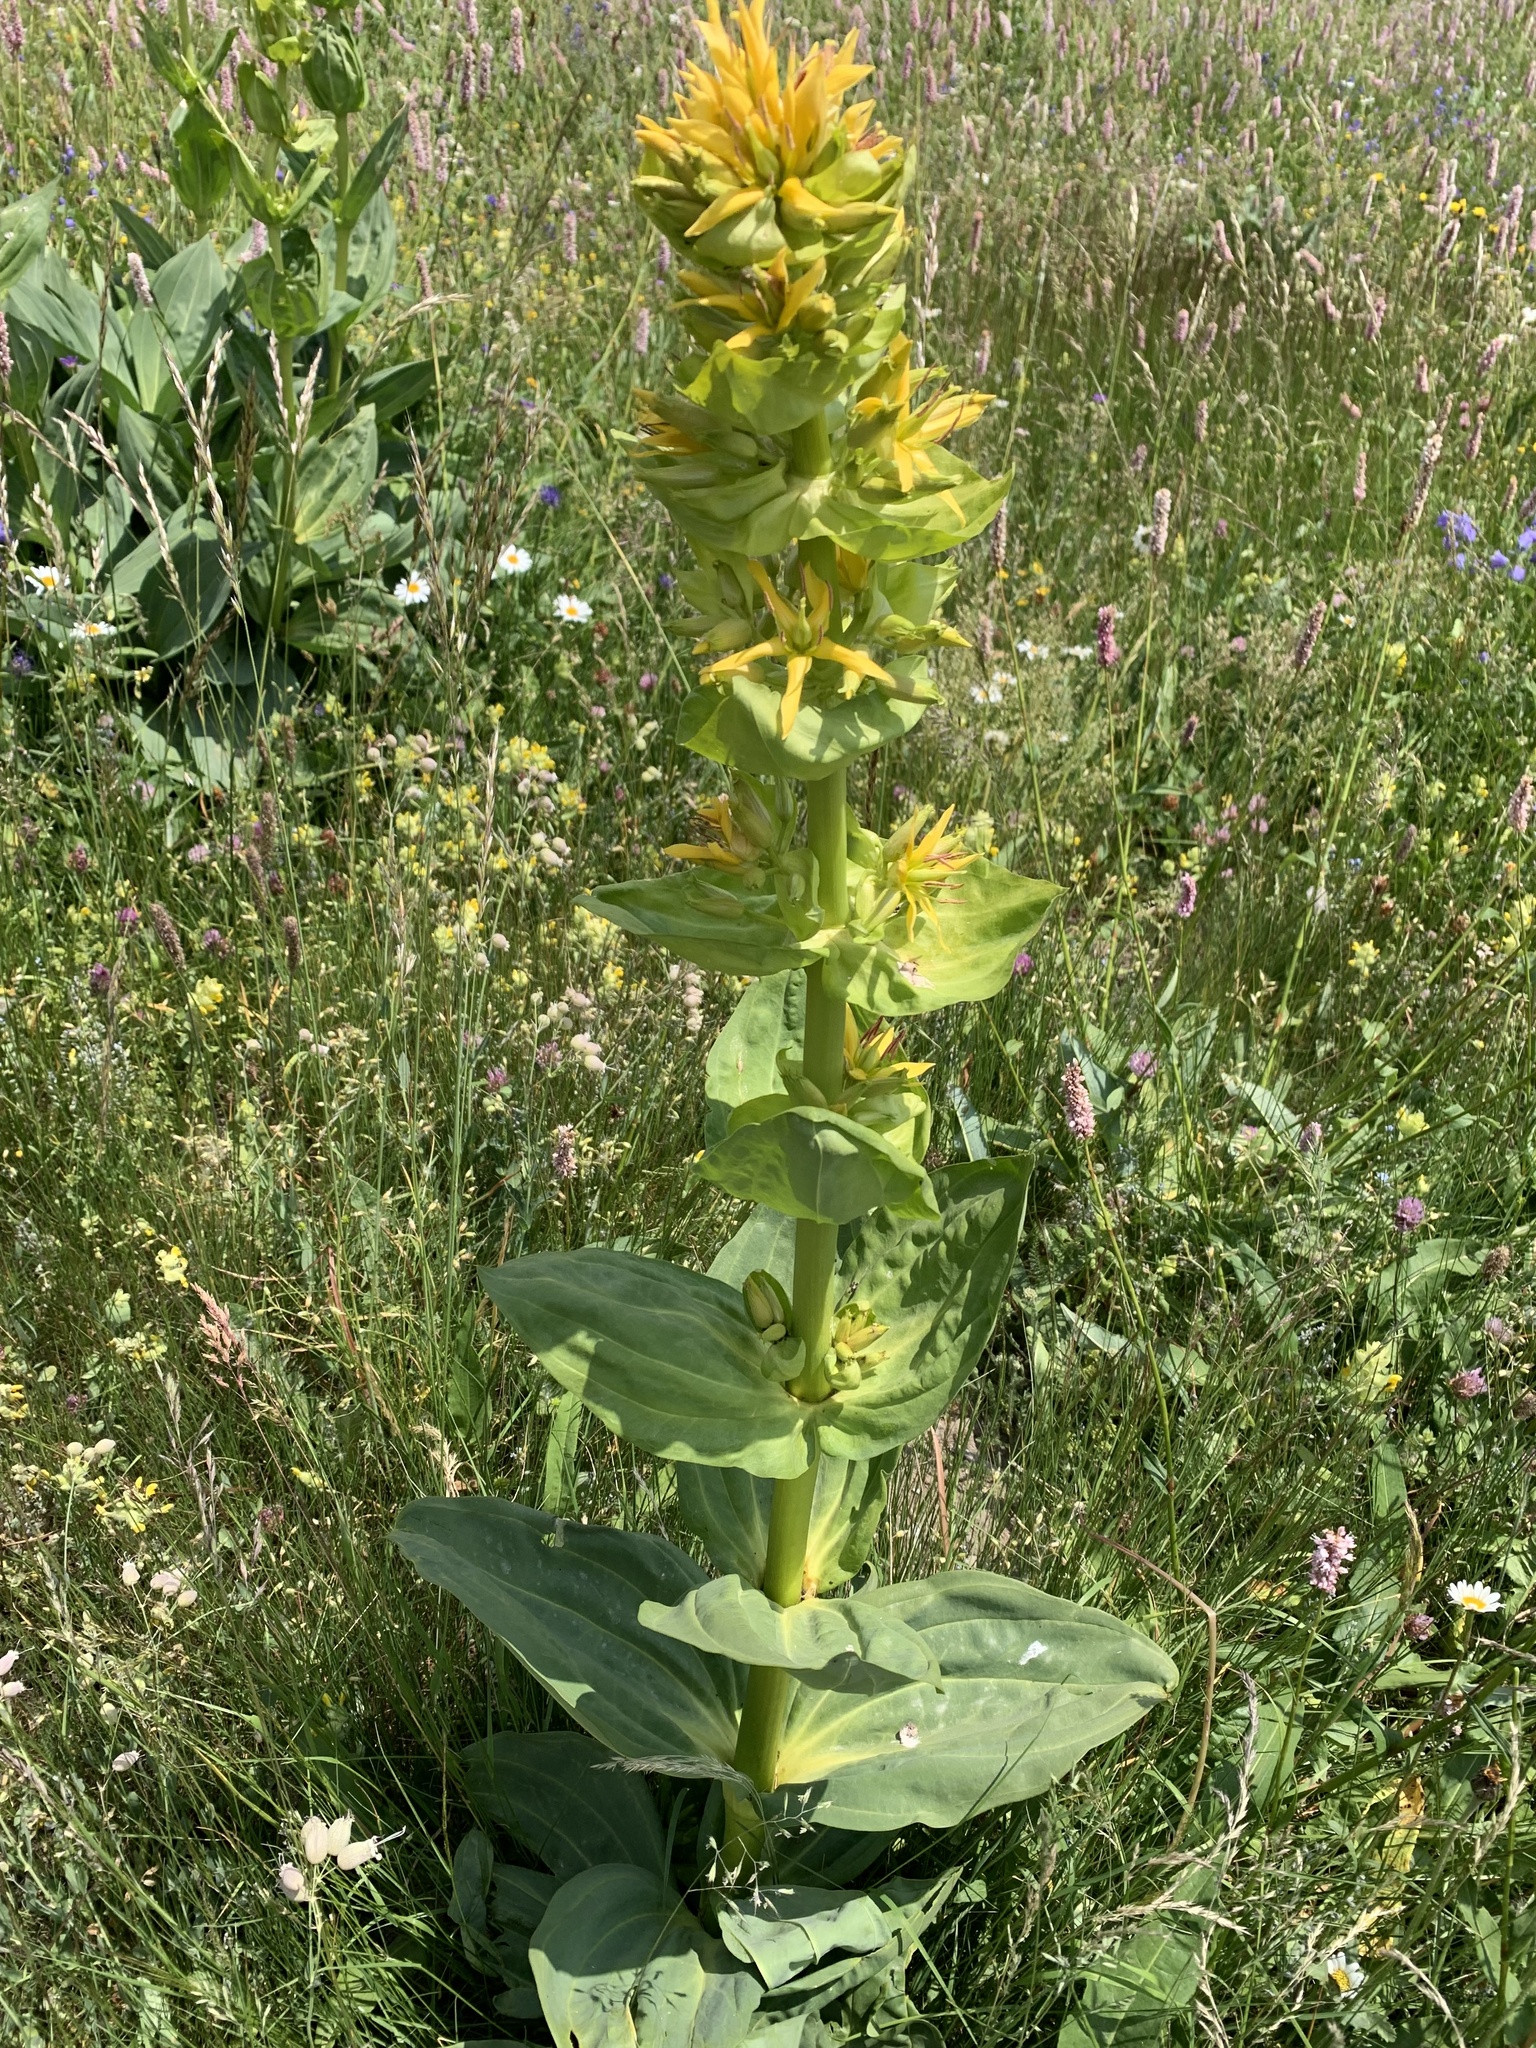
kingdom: Plantae
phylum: Tracheophyta
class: Magnoliopsida
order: Gentianales
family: Gentianaceae
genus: Gentiana
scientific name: Gentiana lutea
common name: Great yellow gentian
